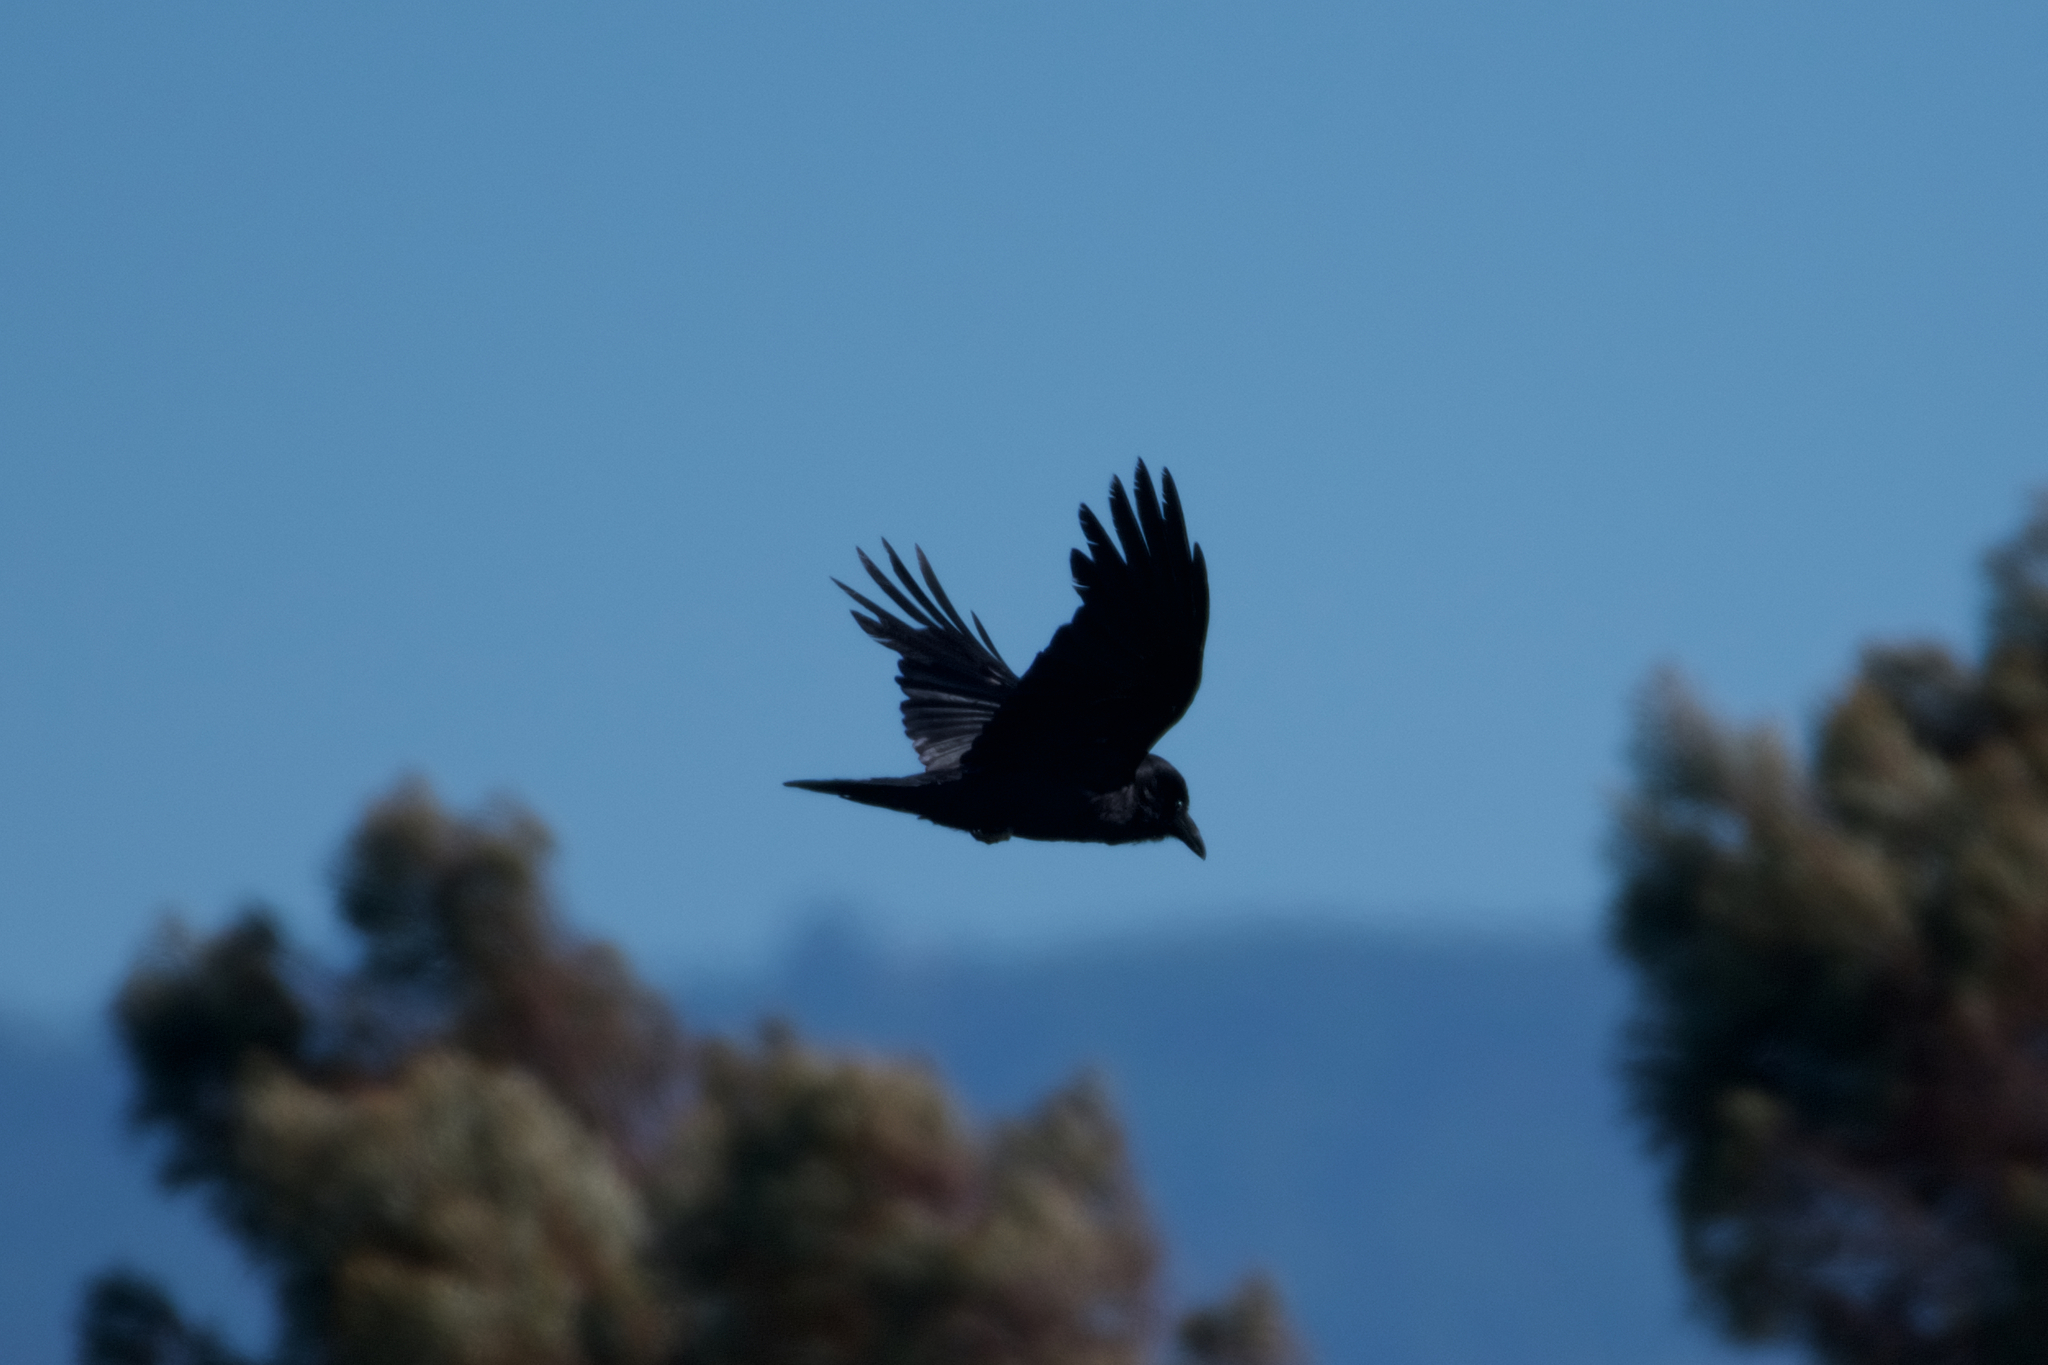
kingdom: Animalia
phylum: Chordata
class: Aves
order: Passeriformes
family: Corvidae
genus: Corvus
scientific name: Corvus corax
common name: Common raven
